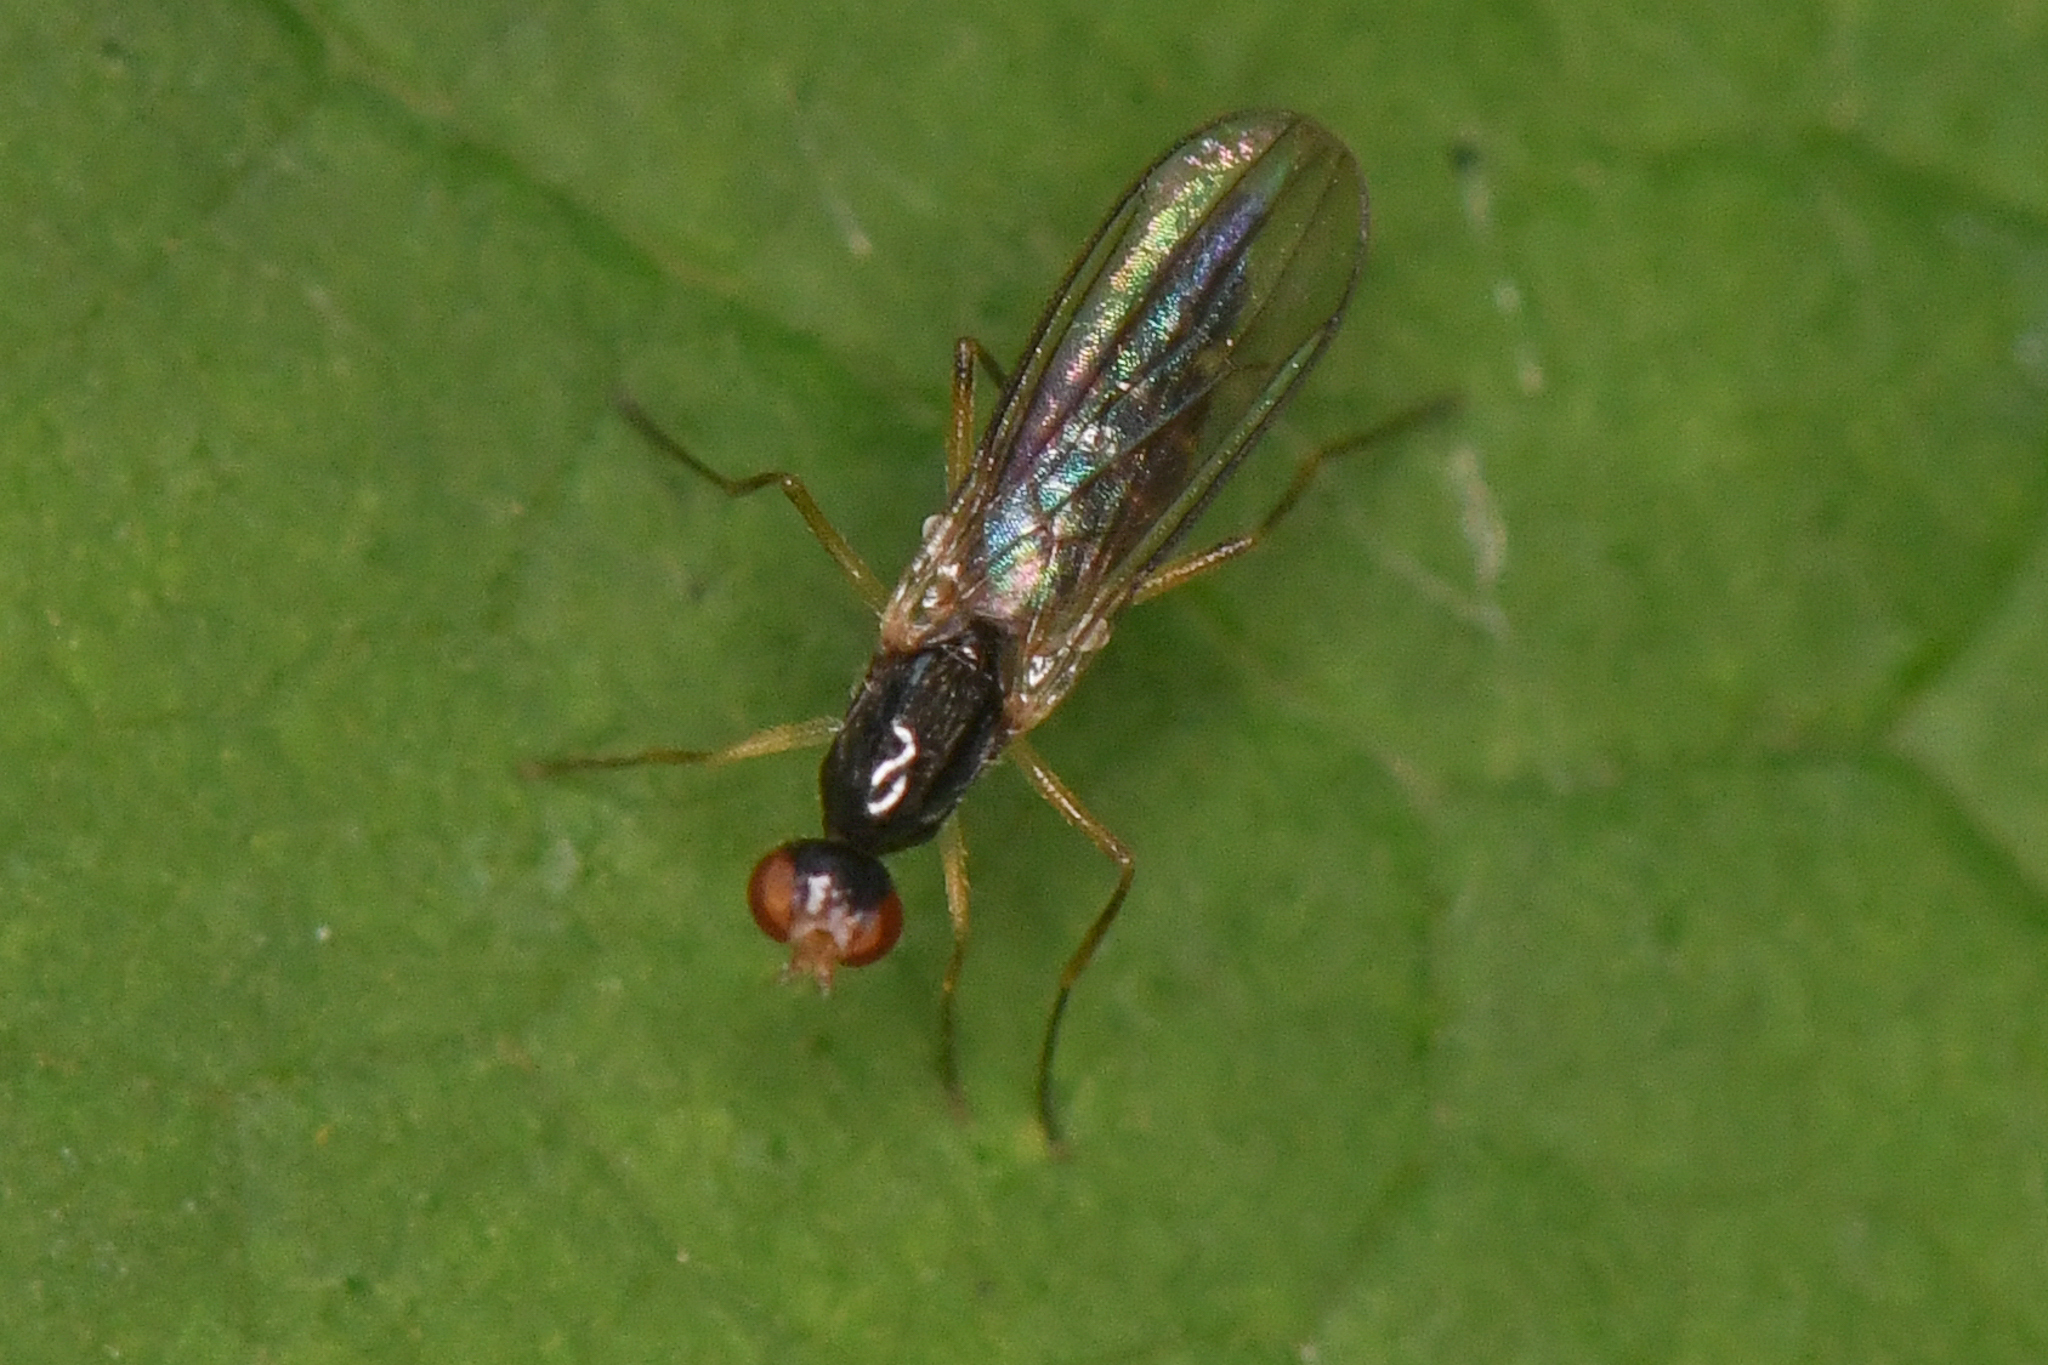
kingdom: Animalia
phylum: Arthropoda
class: Insecta
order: Diptera
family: Strongylophthalmyiidae
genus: Strongylophthalmyia
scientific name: Strongylophthalmyia angustipennis
